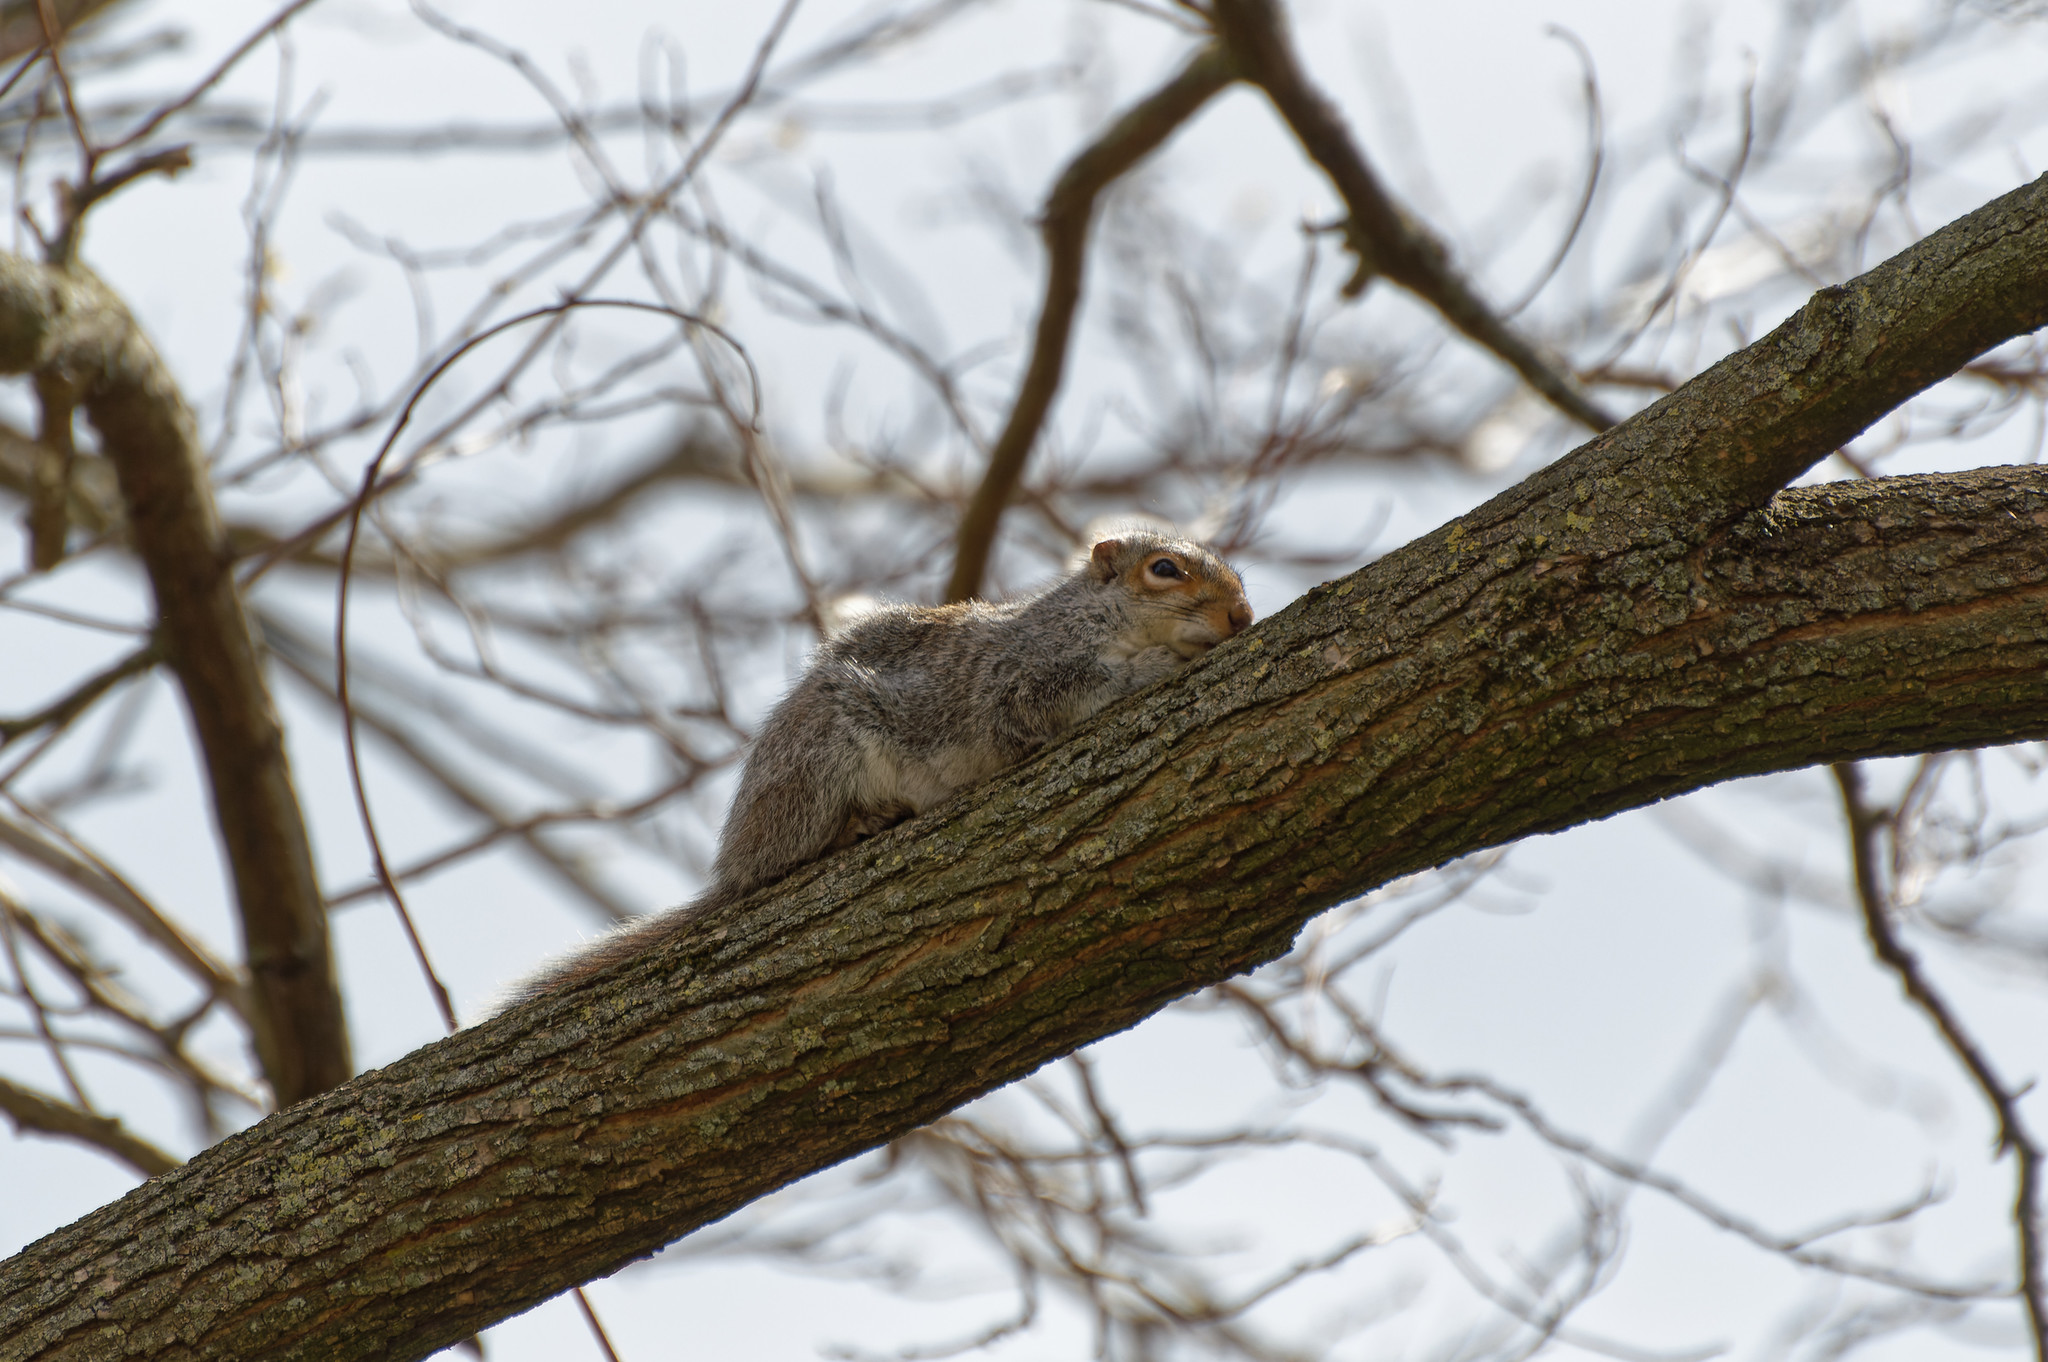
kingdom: Animalia
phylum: Chordata
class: Mammalia
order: Rodentia
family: Sciuridae
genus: Sciurus
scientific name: Sciurus carolinensis
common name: Eastern gray squirrel
